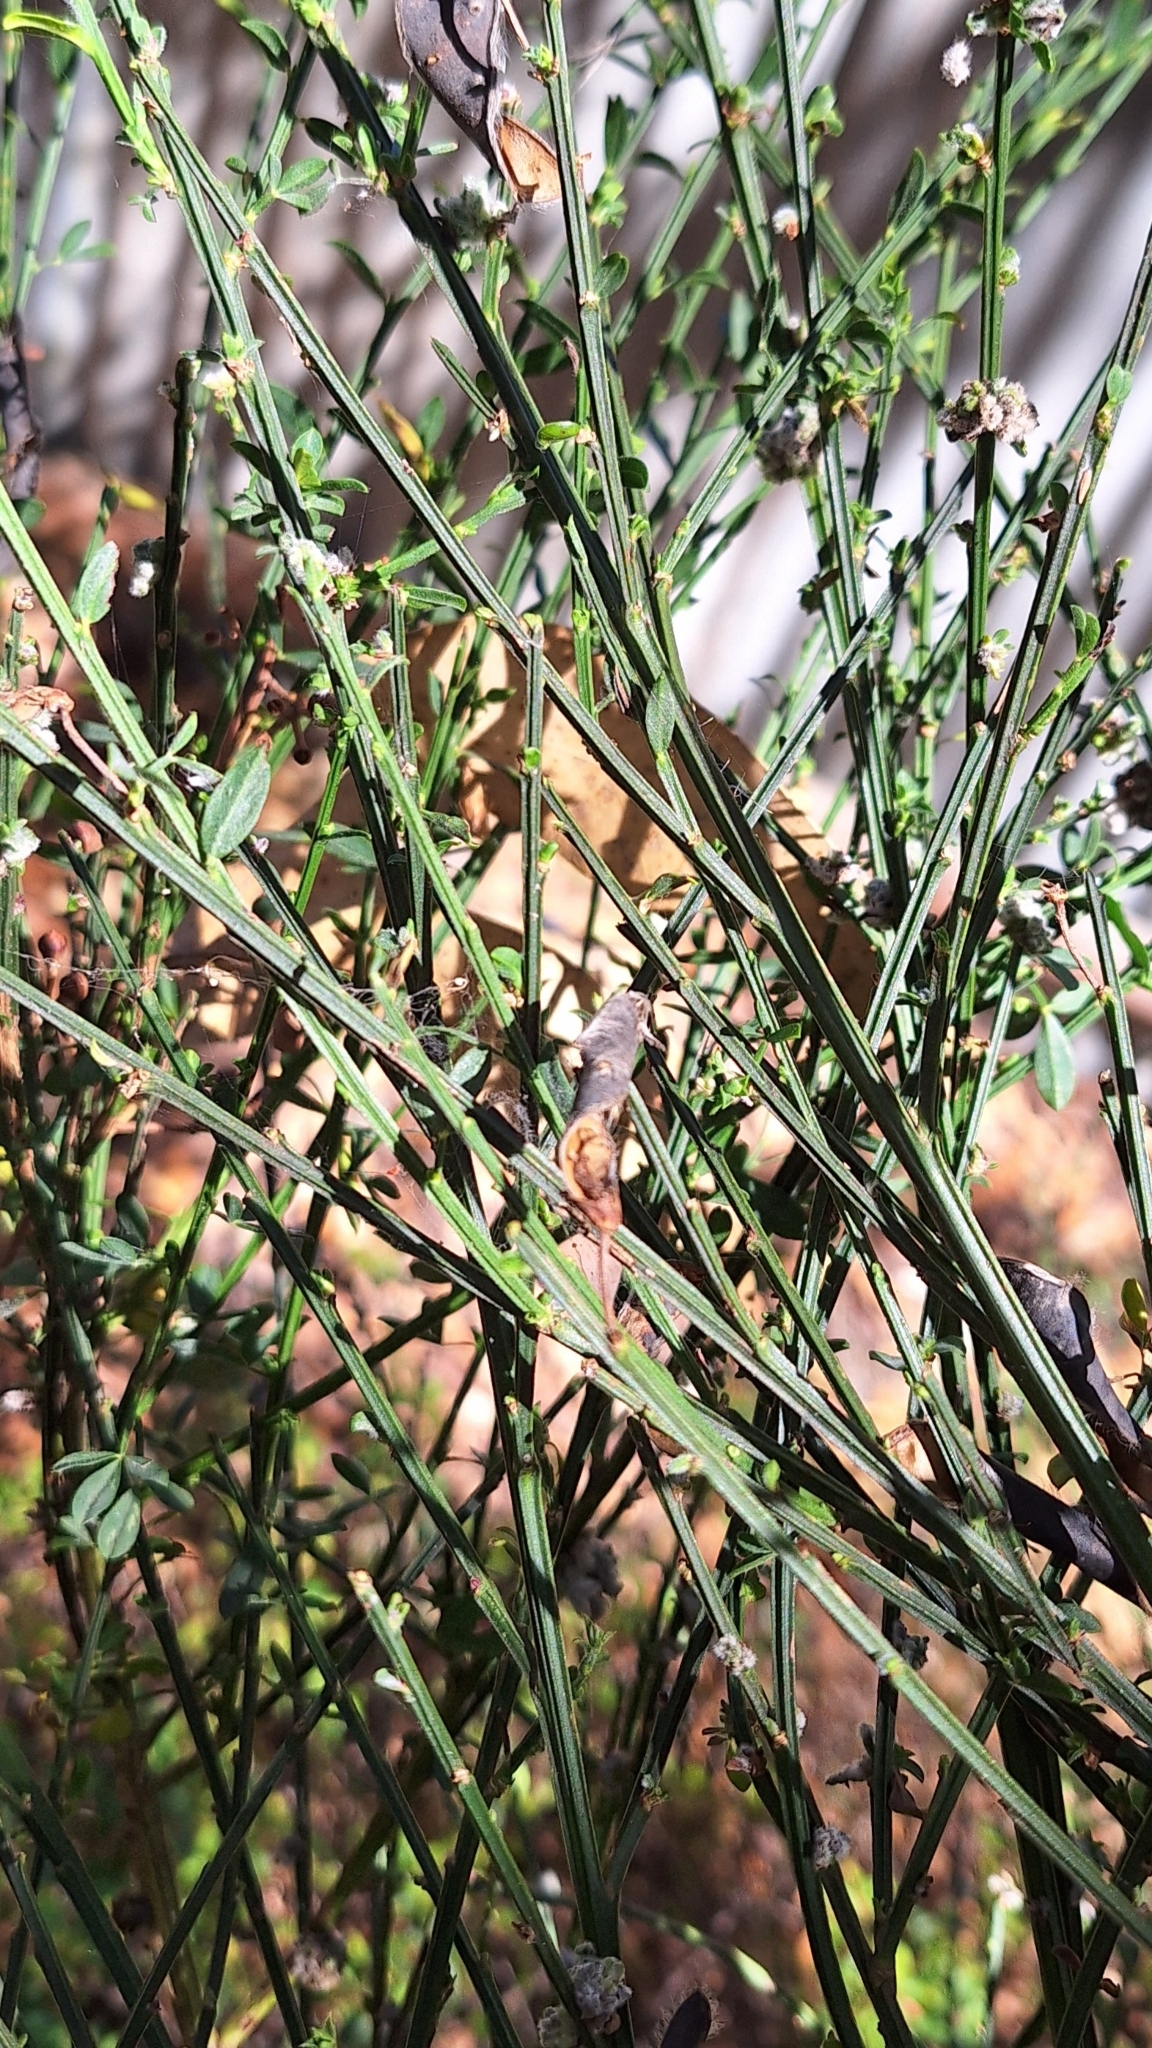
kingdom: Plantae
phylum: Tracheophyta
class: Magnoliopsida
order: Fabales
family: Fabaceae
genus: Cytisus
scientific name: Cytisus scoparius
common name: Scotch broom
